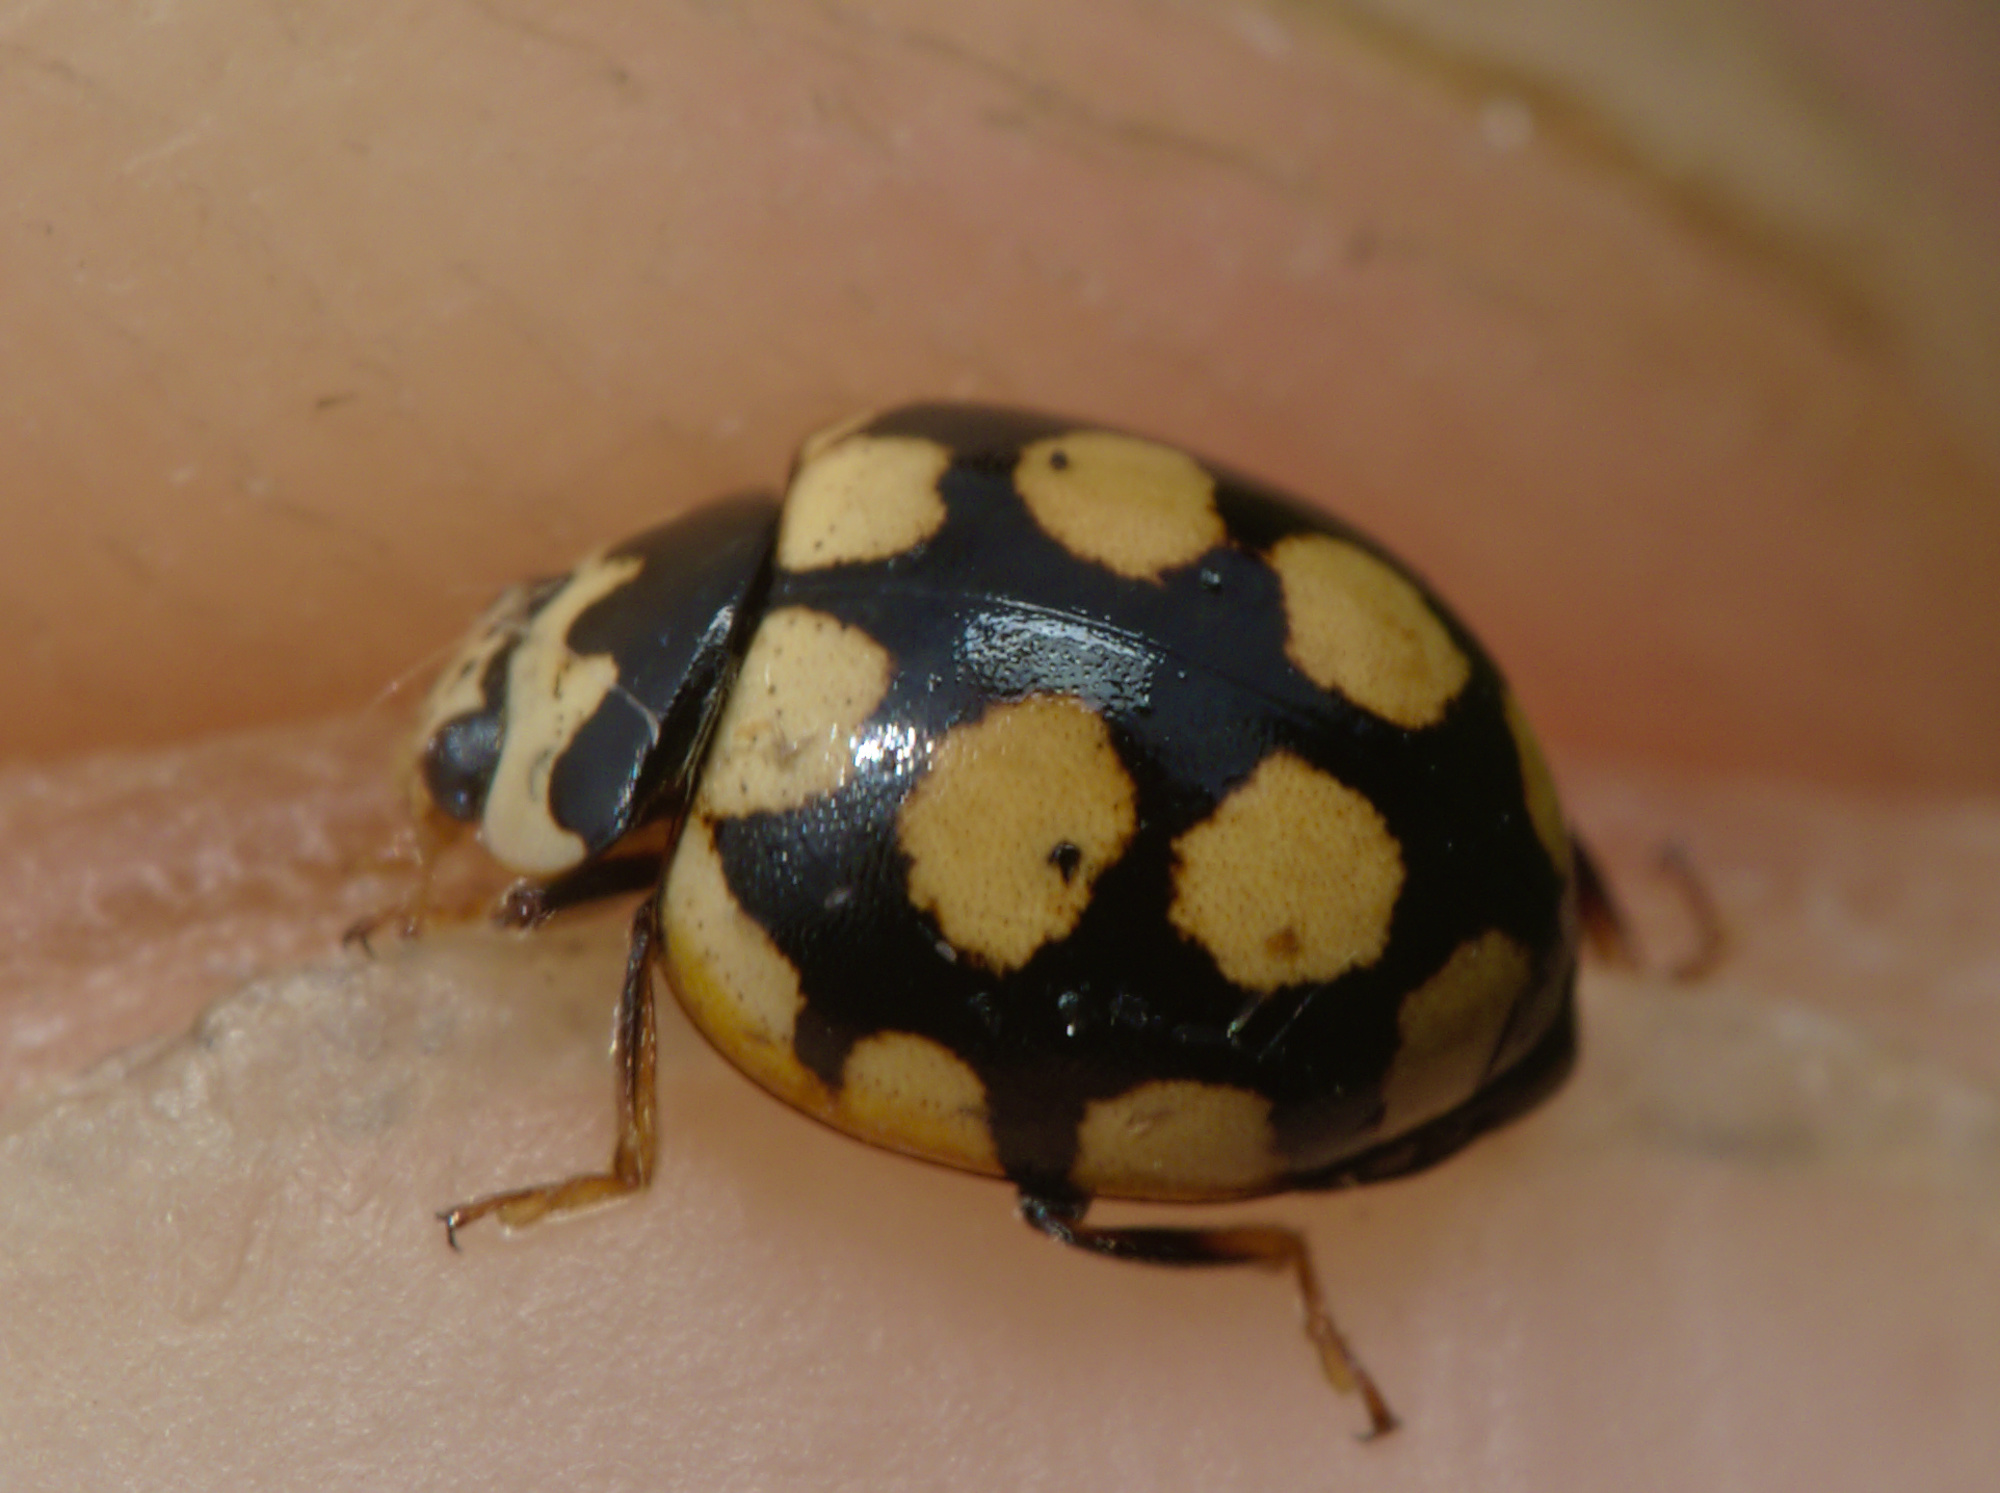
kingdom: Animalia
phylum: Arthropoda
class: Insecta
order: Coleoptera
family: Coccinellidae
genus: Coccinula
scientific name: Coccinula quatuordecimpustulata
